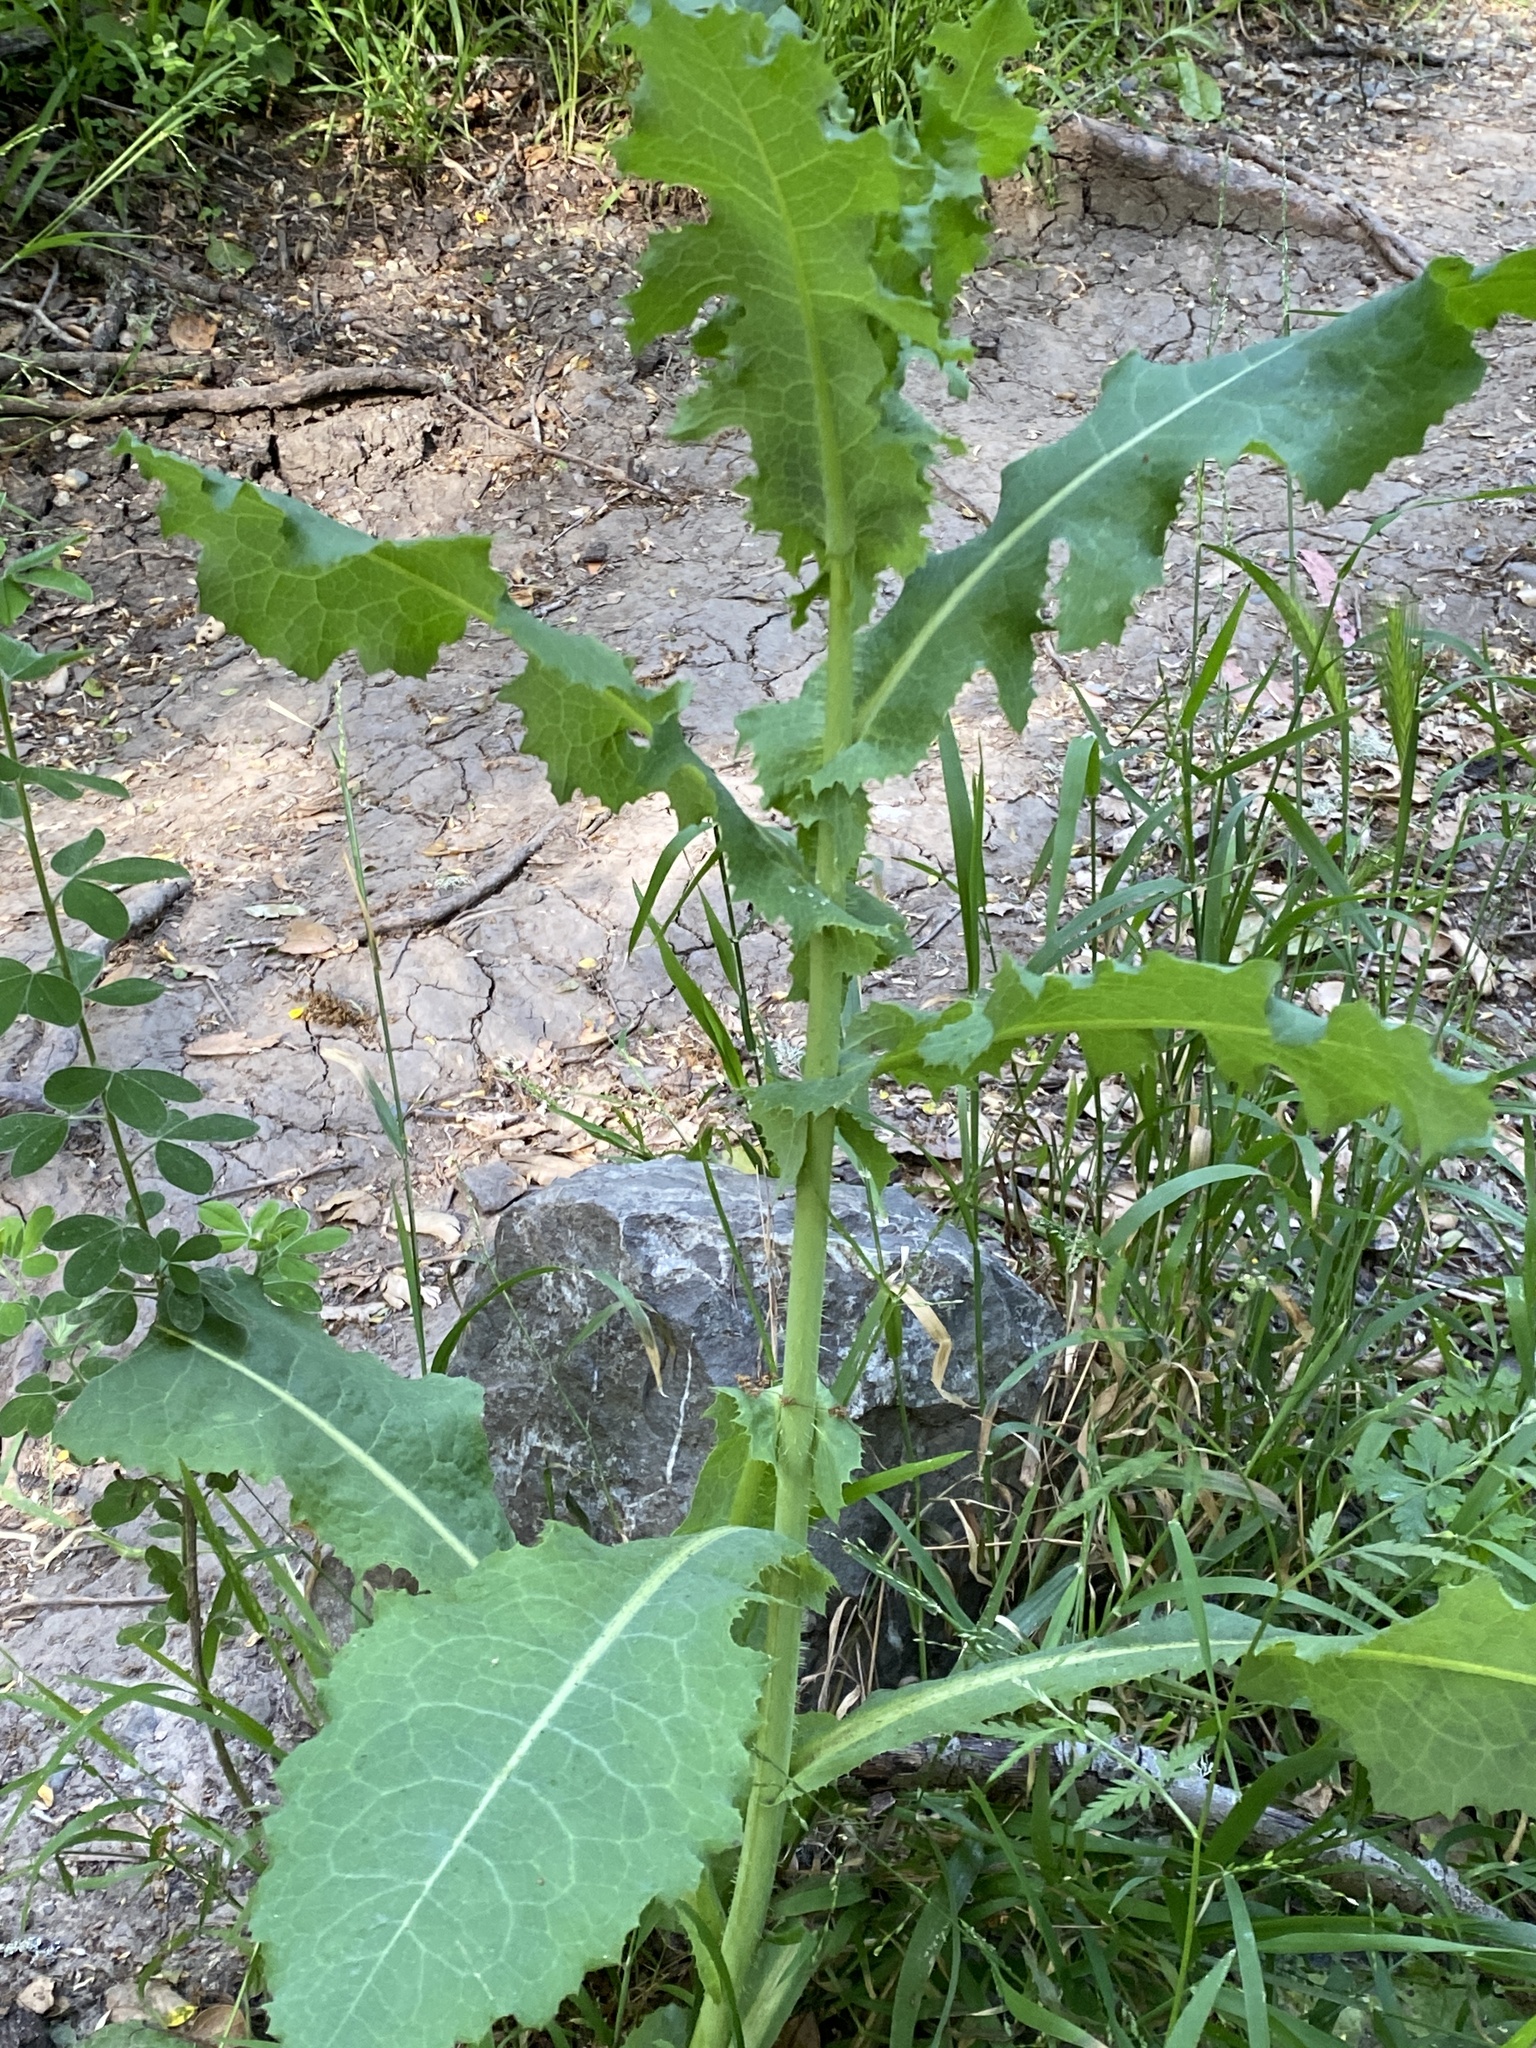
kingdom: Plantae
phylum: Tracheophyta
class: Magnoliopsida
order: Asterales
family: Asteraceae
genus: Lactuca
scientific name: Lactuca virosa
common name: Great lettuce
